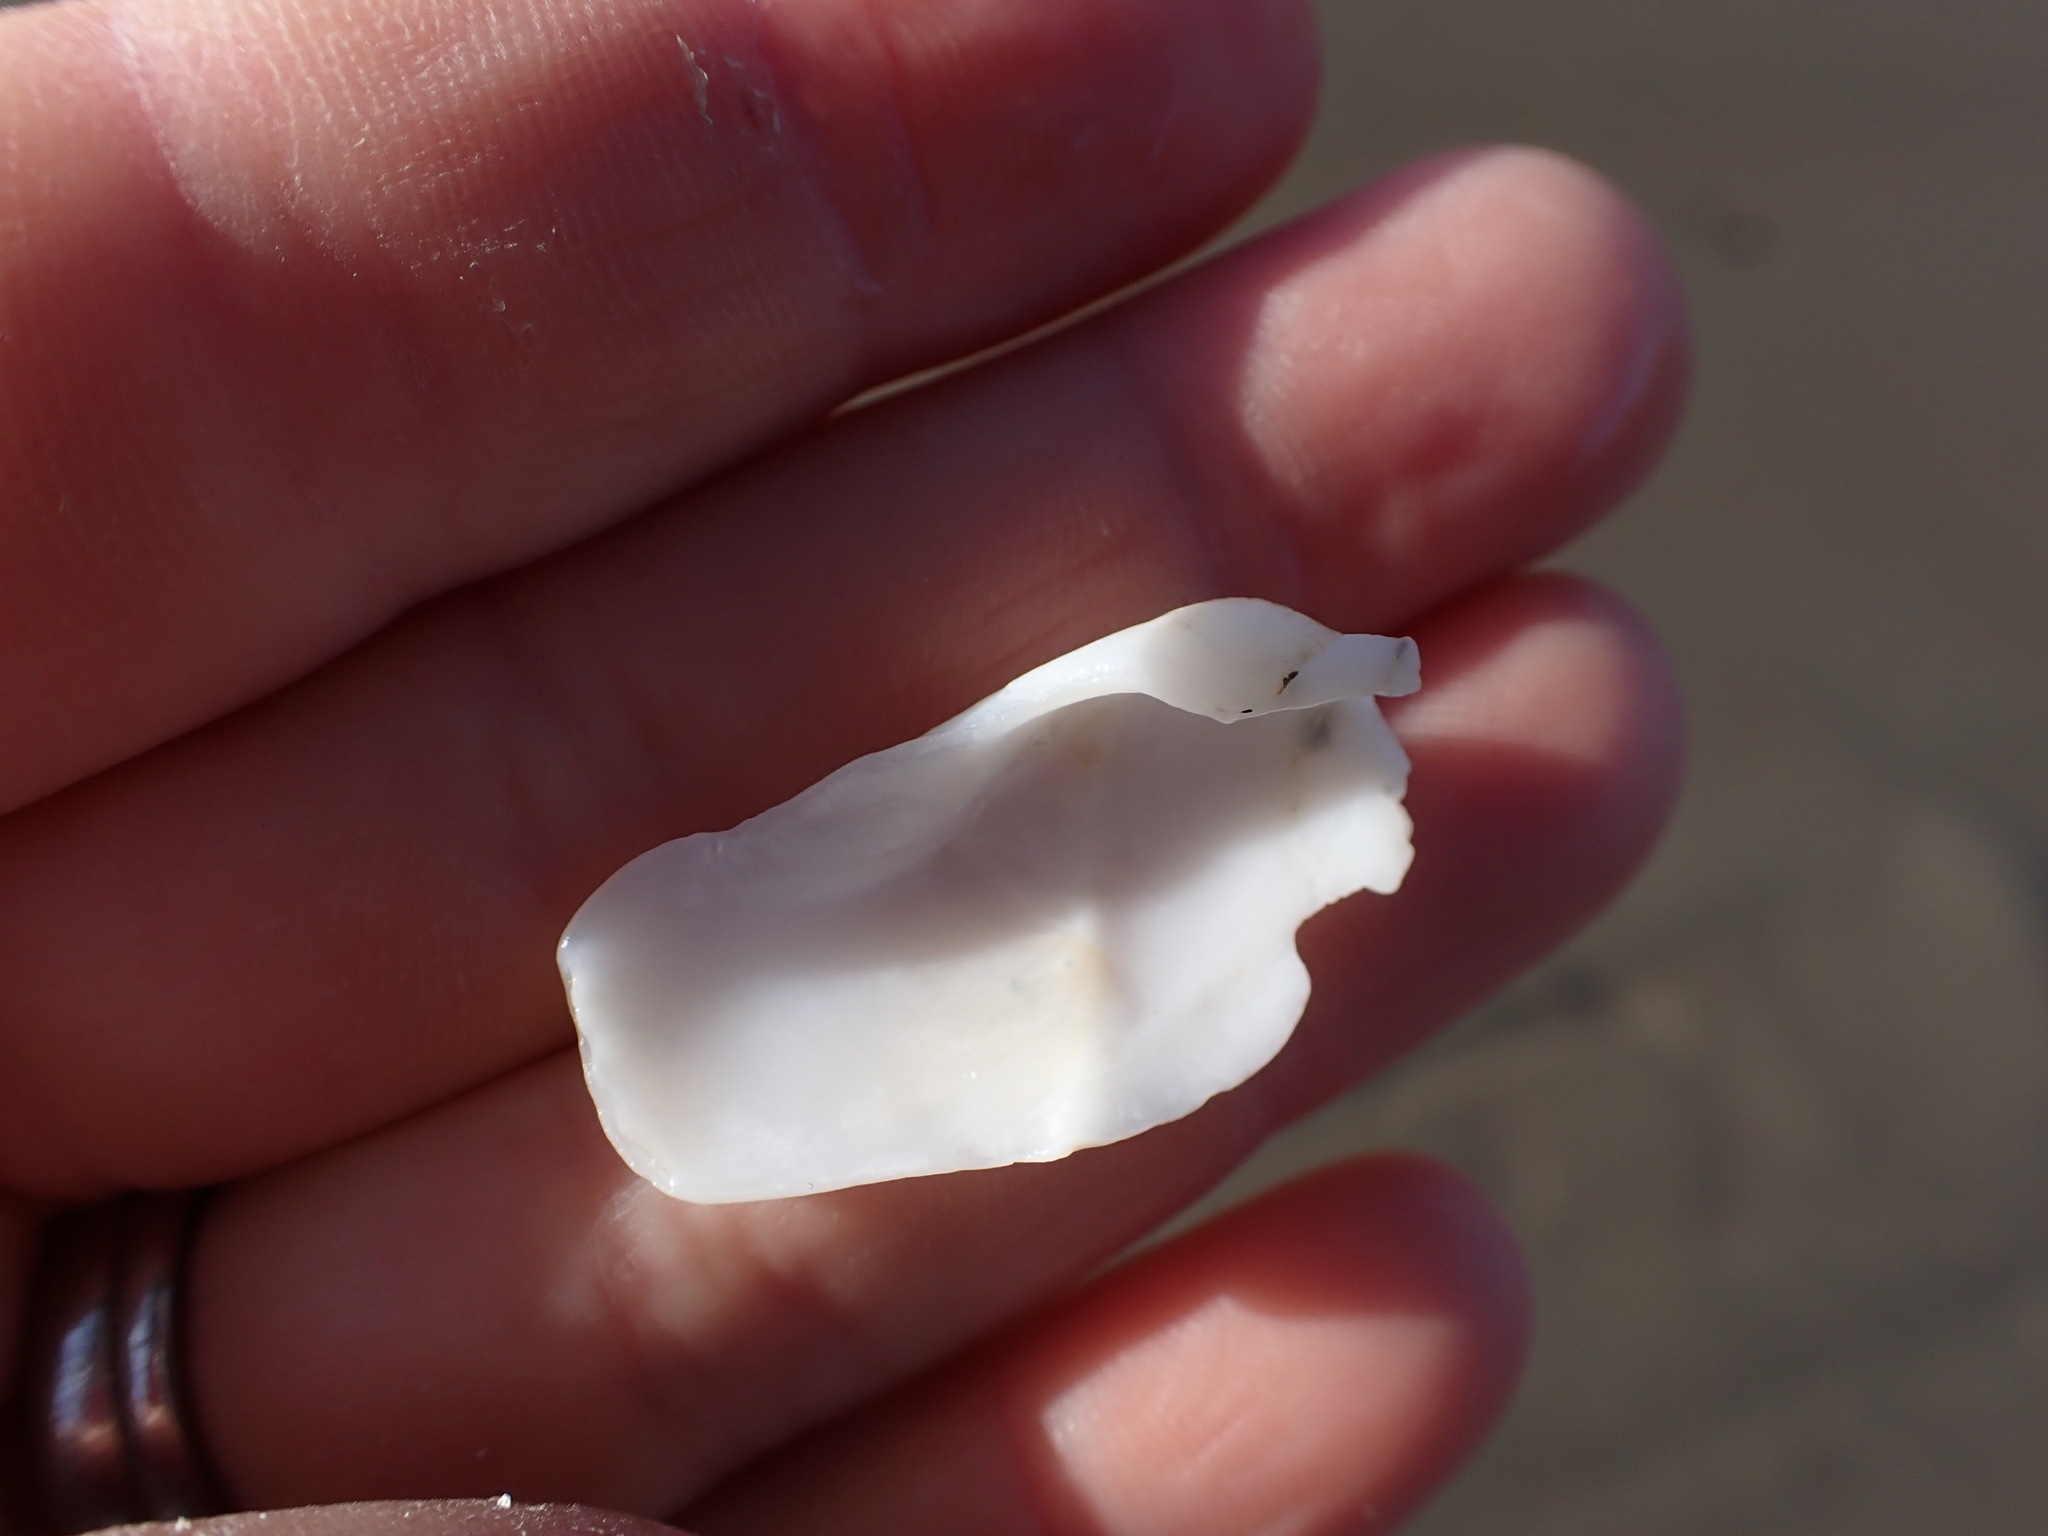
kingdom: Animalia
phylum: Mollusca
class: Bivalvia
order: Myida
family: Pholadidae
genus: Pholadidea
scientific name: Pholadidea suteri
